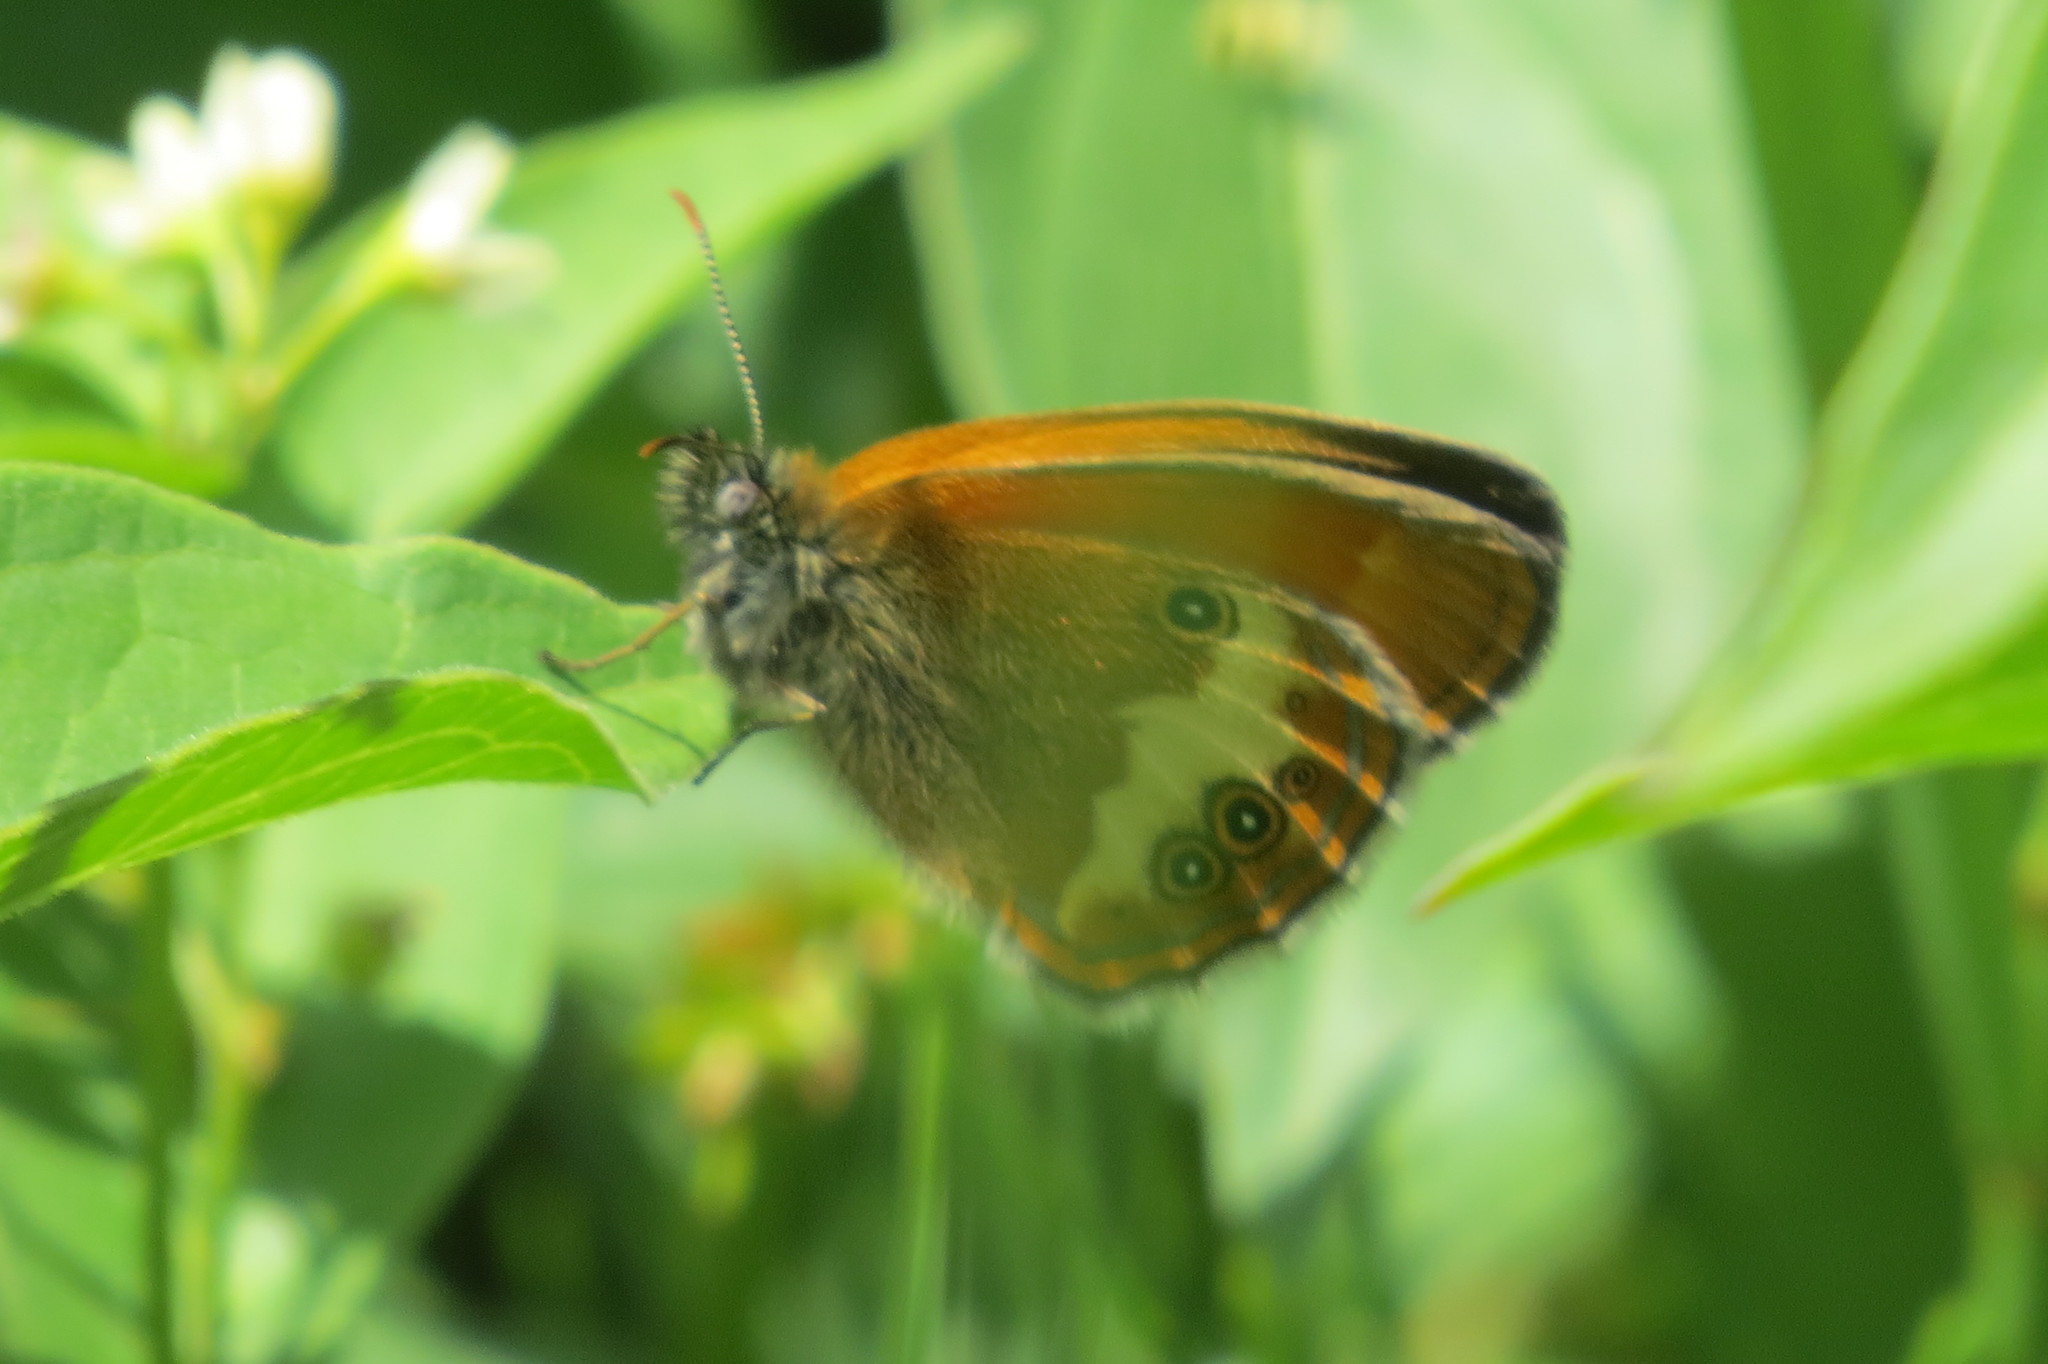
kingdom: Animalia
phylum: Arthropoda
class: Insecta
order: Lepidoptera
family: Nymphalidae
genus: Coenonympha
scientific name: Coenonympha arcania
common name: Pearly heath
